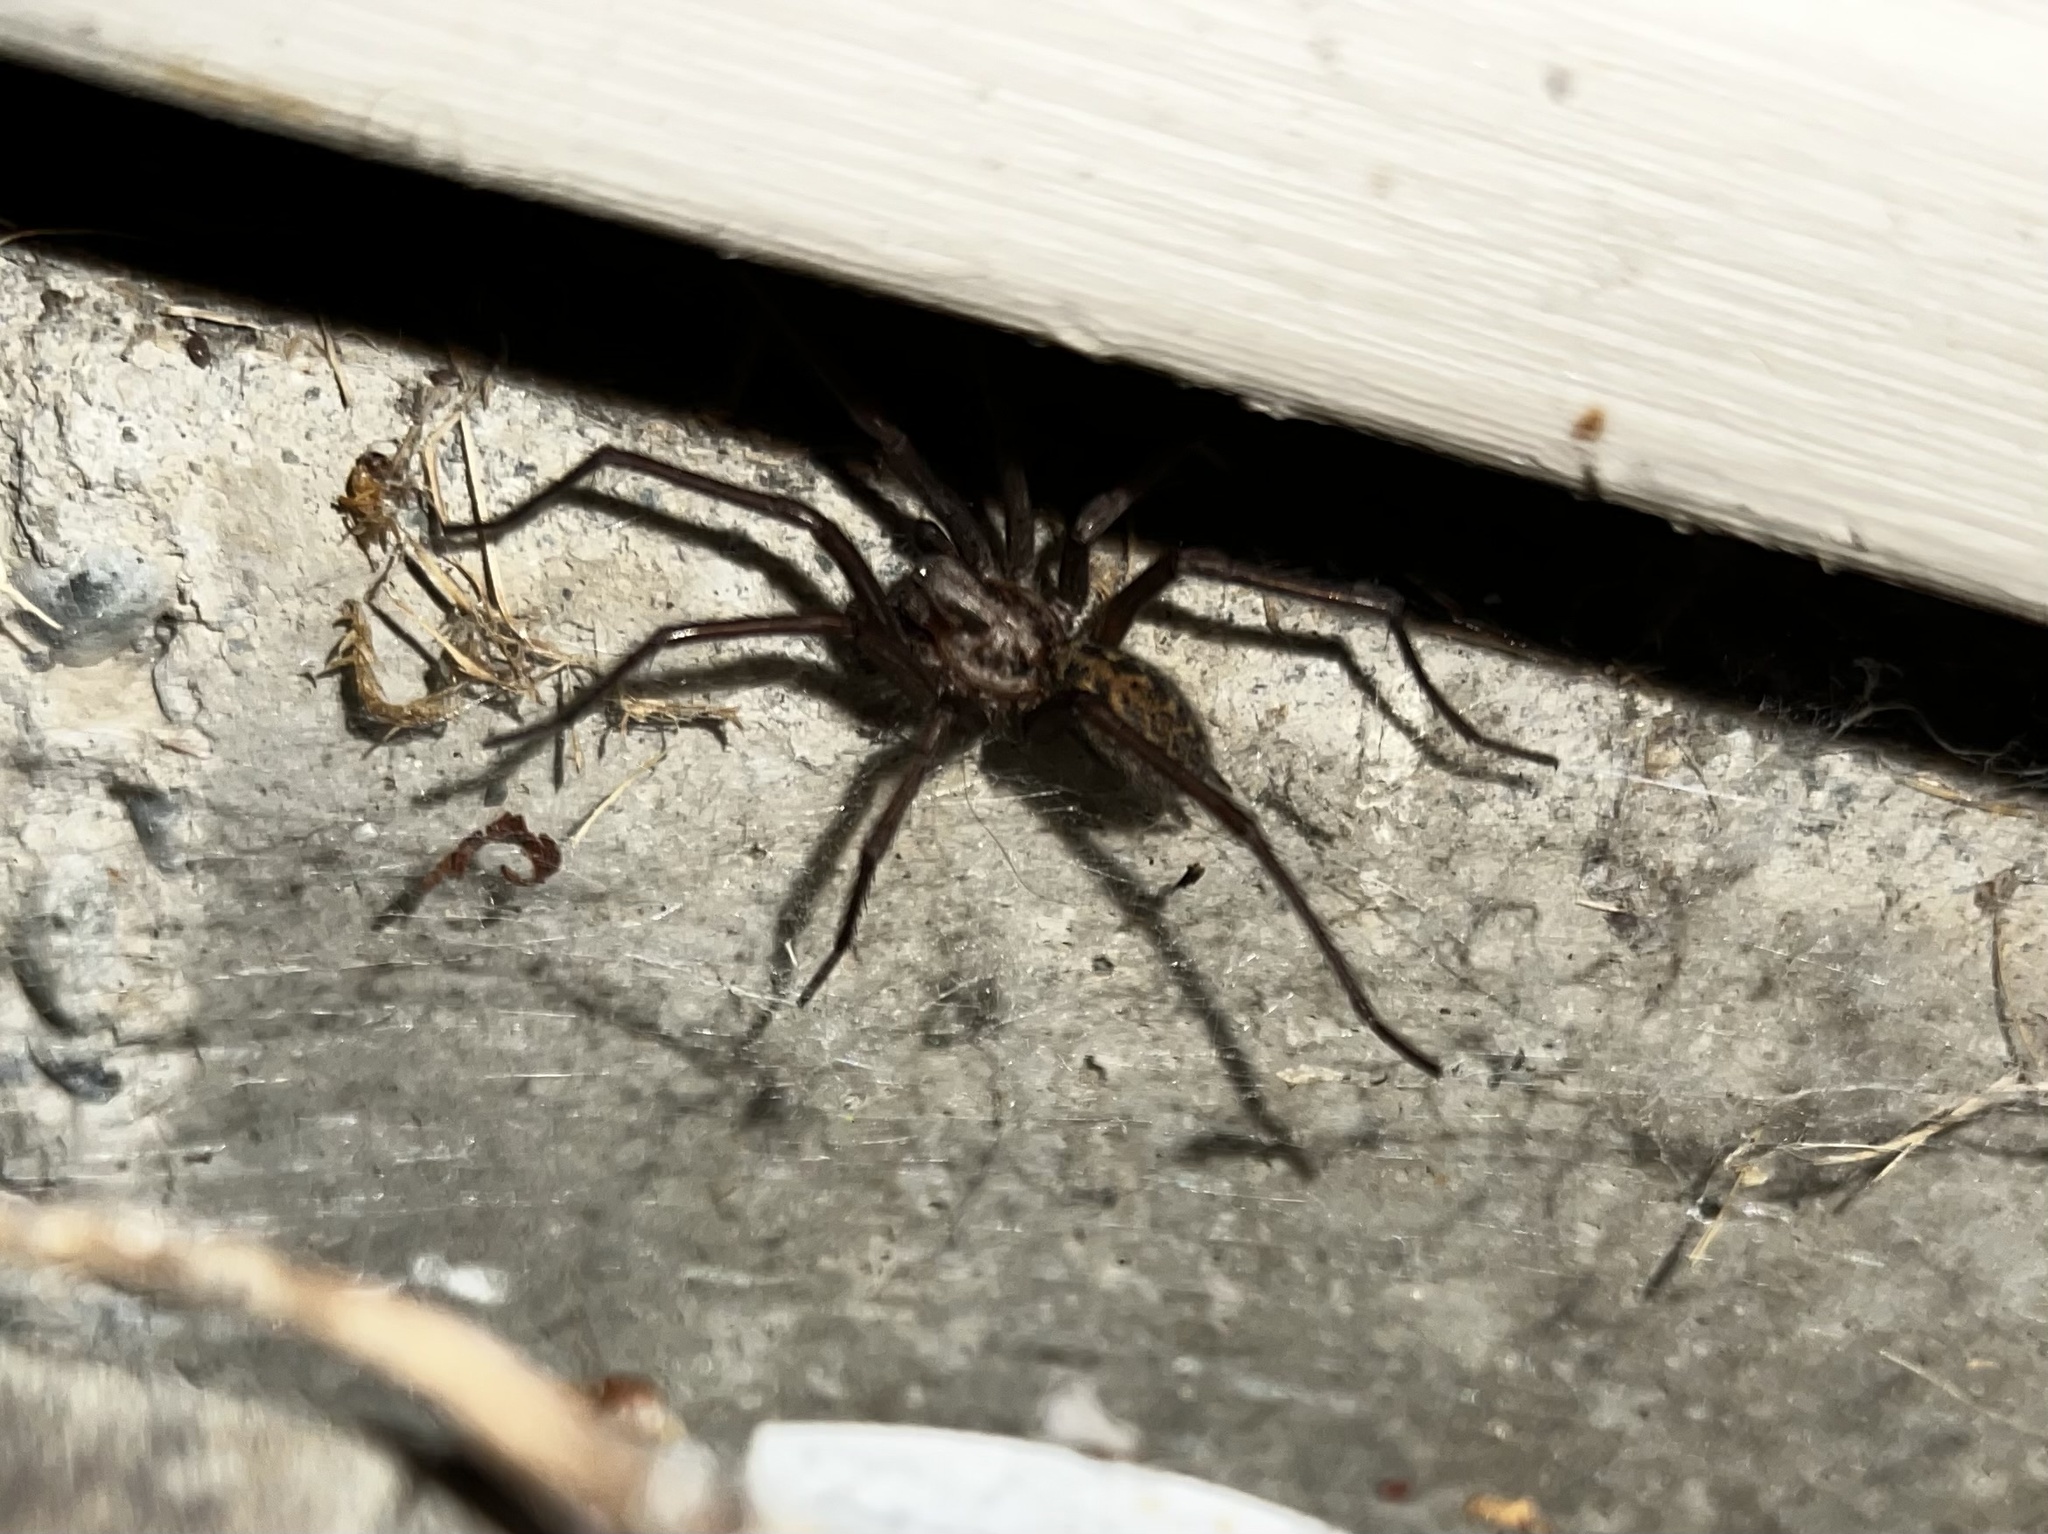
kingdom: Animalia
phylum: Arthropoda
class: Arachnida
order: Araneae
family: Agelenidae
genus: Eratigena
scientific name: Eratigena duellica
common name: Giant house spider
